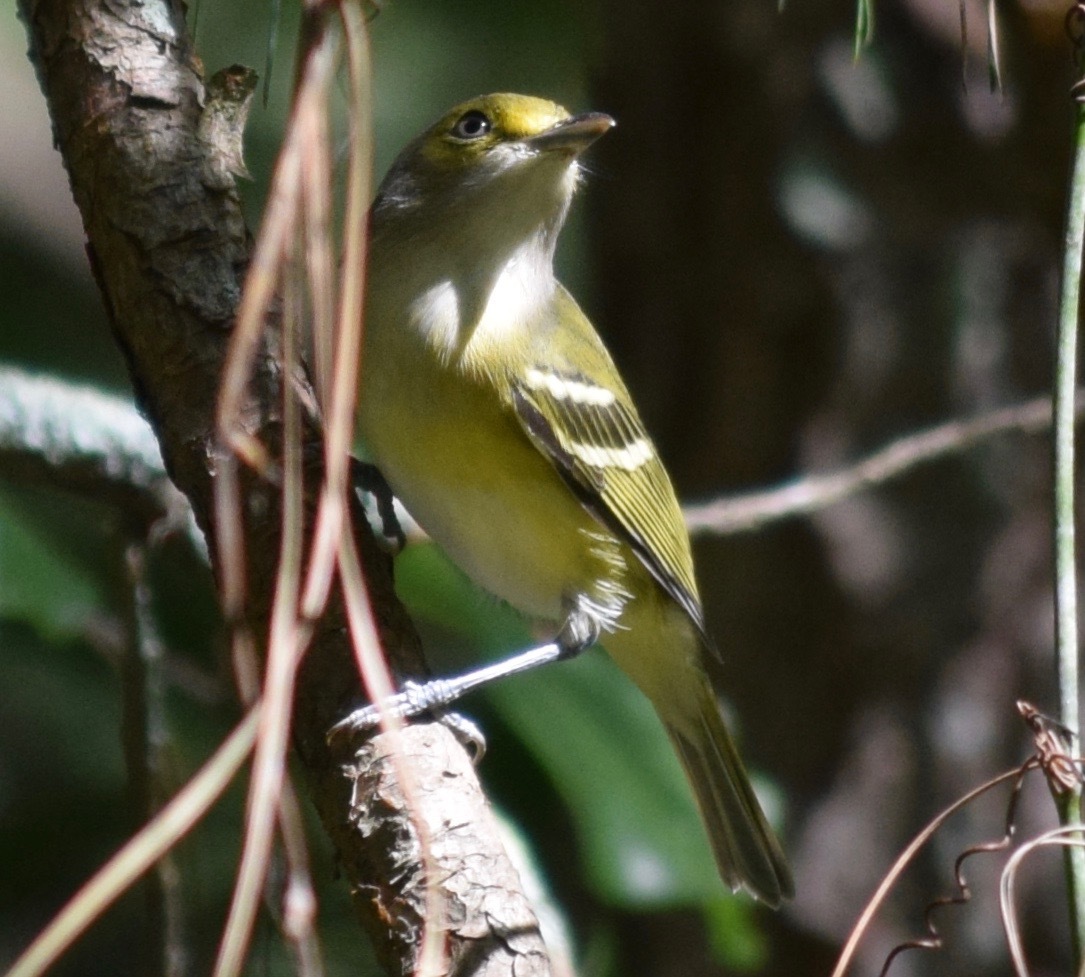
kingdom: Animalia
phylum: Chordata
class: Aves
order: Passeriformes
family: Vireonidae
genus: Vireo
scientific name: Vireo griseus
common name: White-eyed vireo
